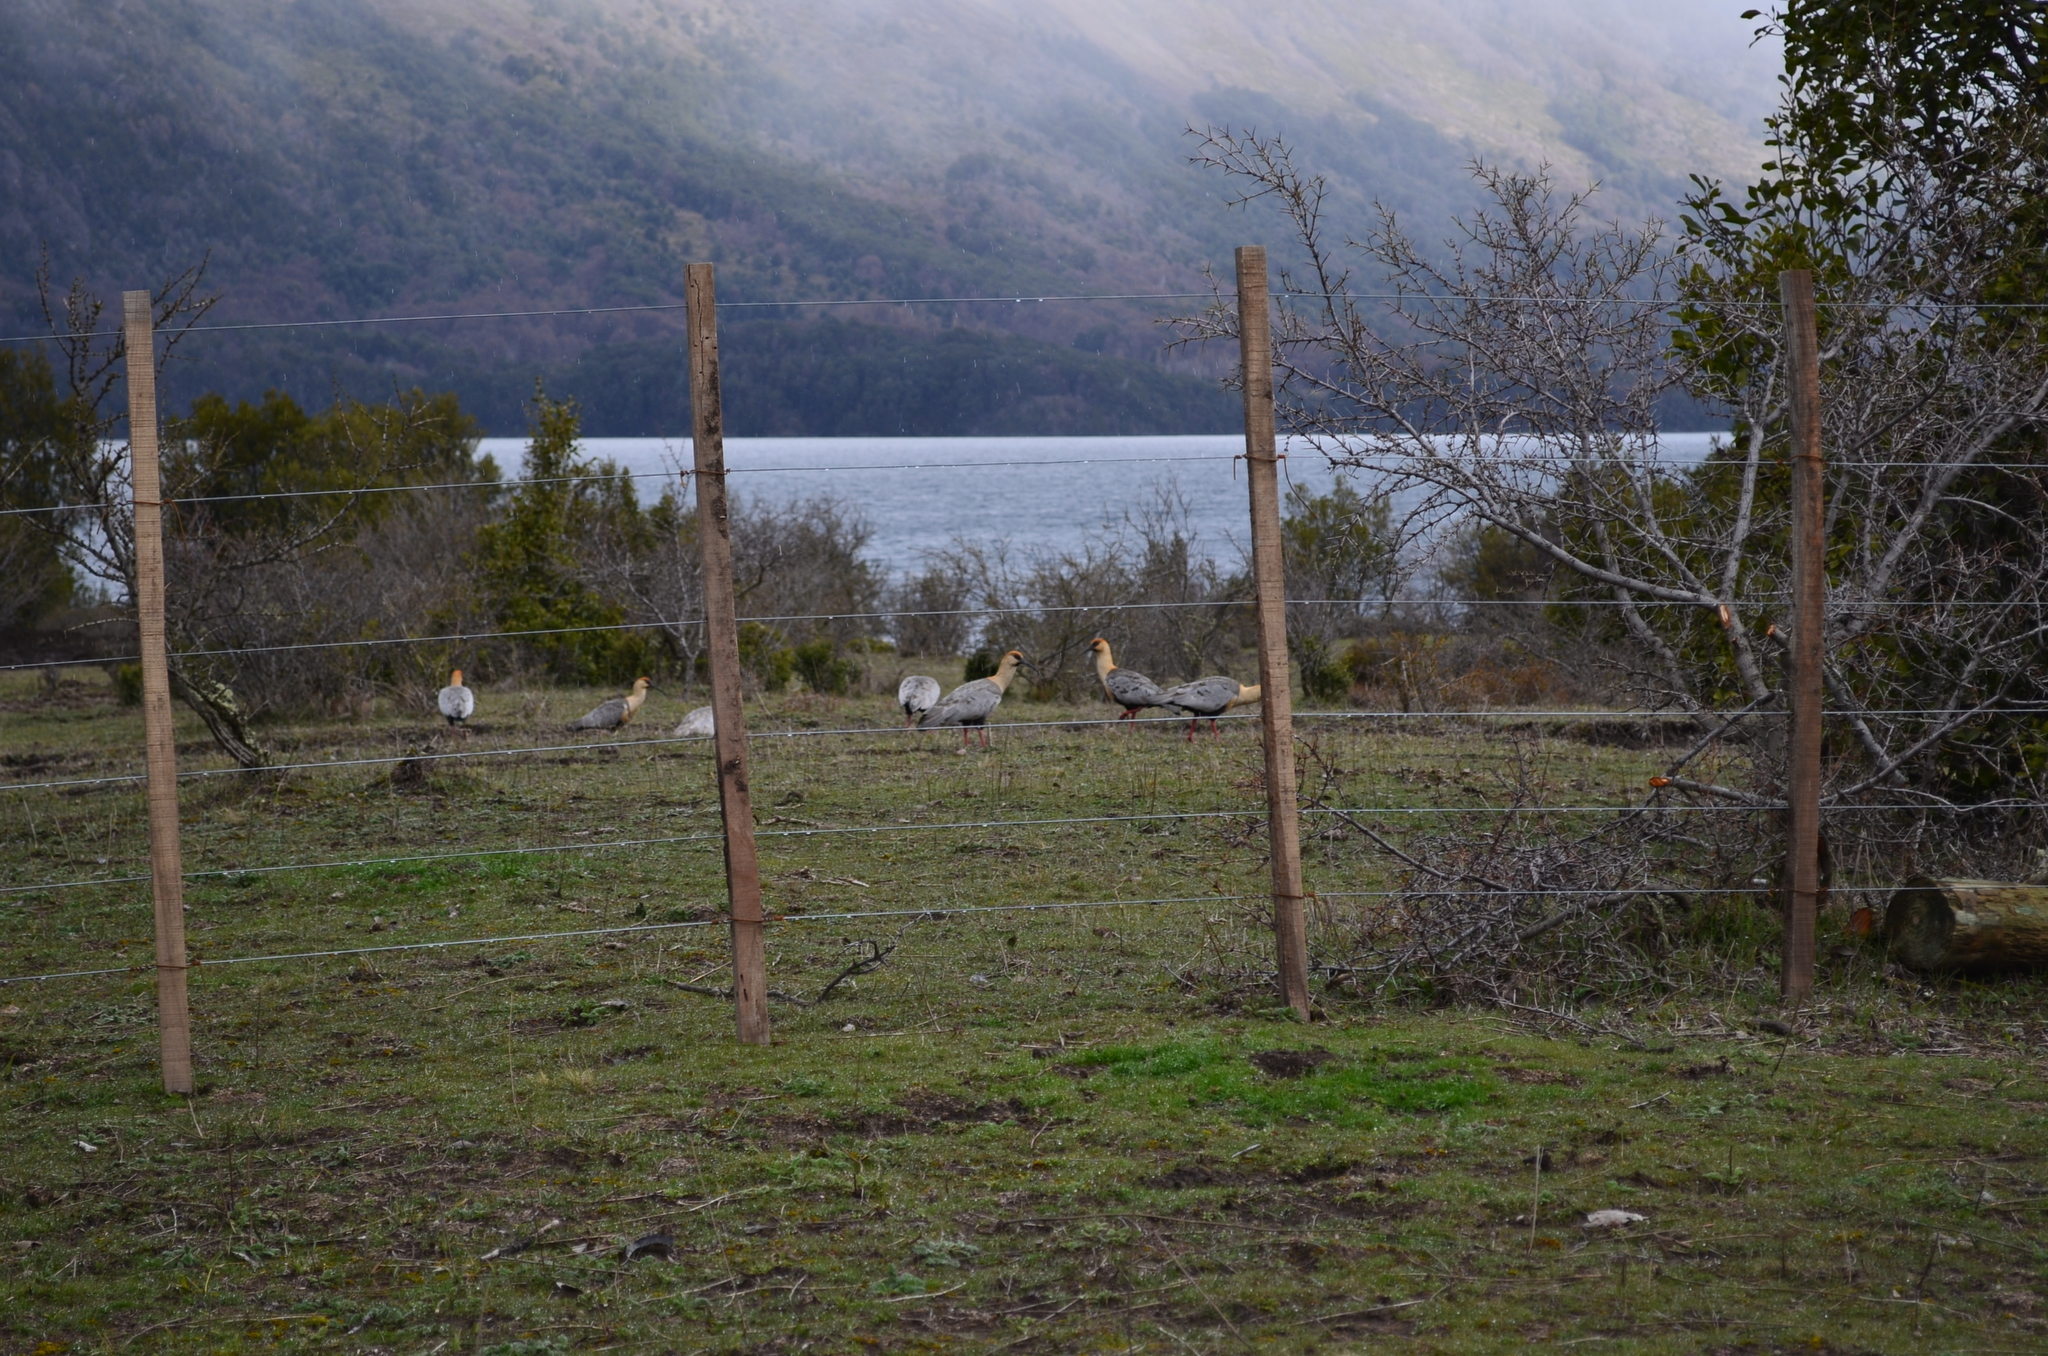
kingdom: Animalia
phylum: Chordata
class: Aves
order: Pelecaniformes
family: Threskiornithidae
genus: Theristicus
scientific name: Theristicus melanopis
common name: Black-faced ibis
